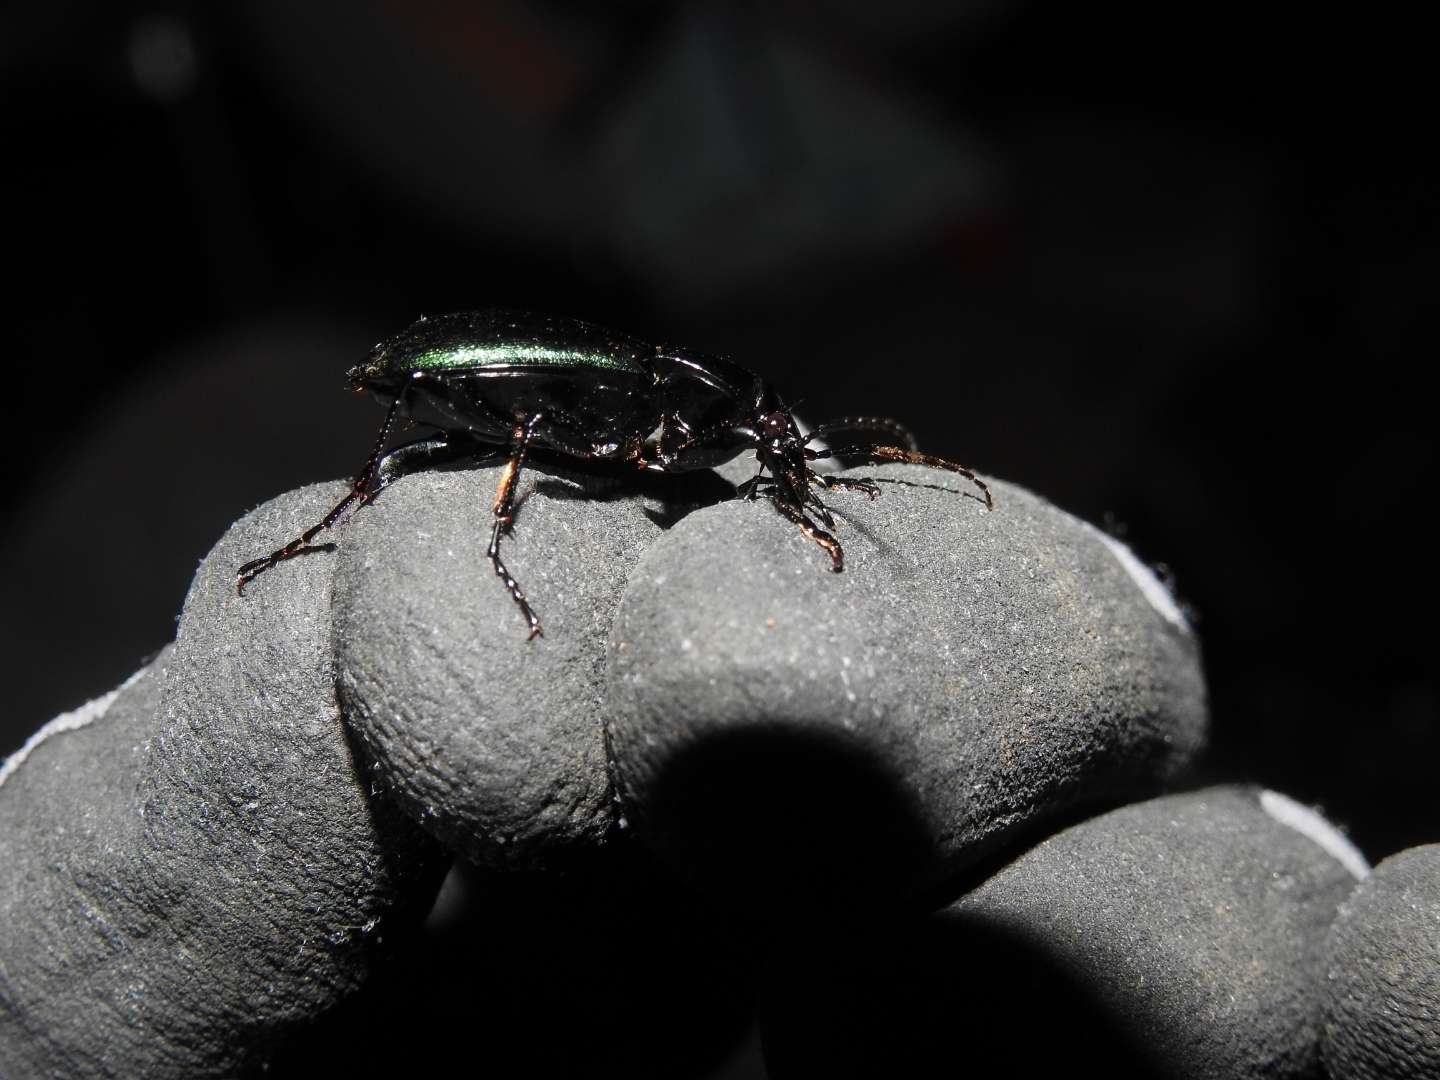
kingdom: Animalia
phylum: Arthropoda
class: Insecta
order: Coleoptera
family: Carabidae
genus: Carabus
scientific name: Carabus nemoralis
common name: European ground beetle
